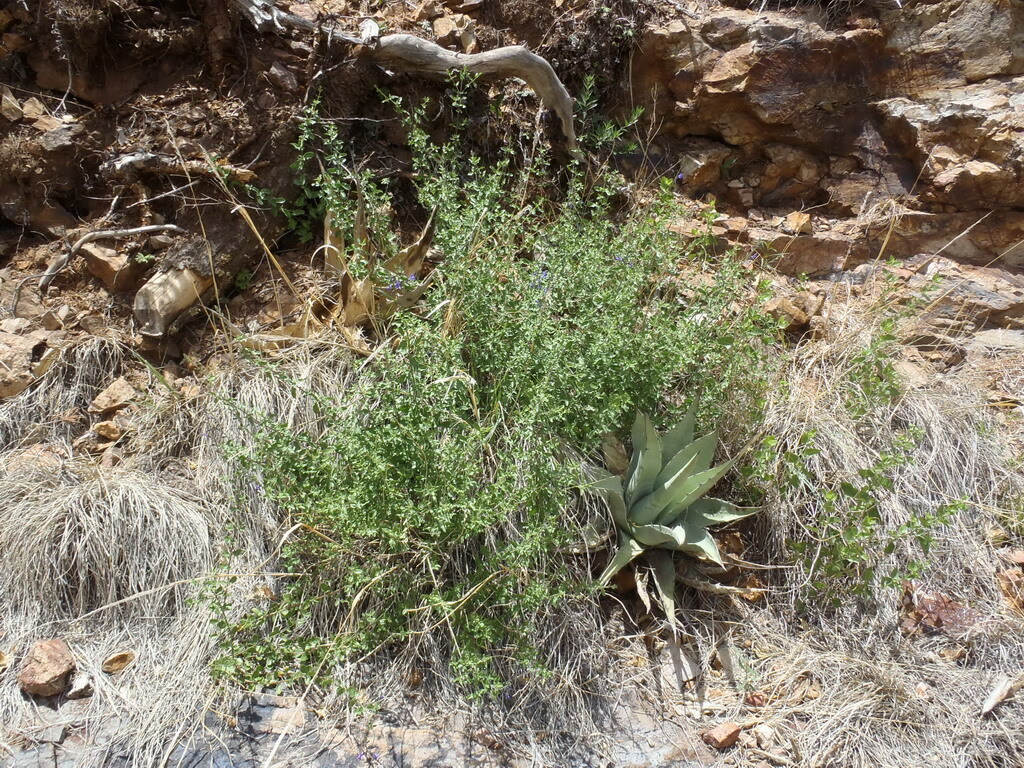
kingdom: Plantae
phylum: Tracheophyta
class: Magnoliopsida
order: Lamiales
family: Lamiaceae
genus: Salvia
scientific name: Salvia lycioides
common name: Canyon sage
